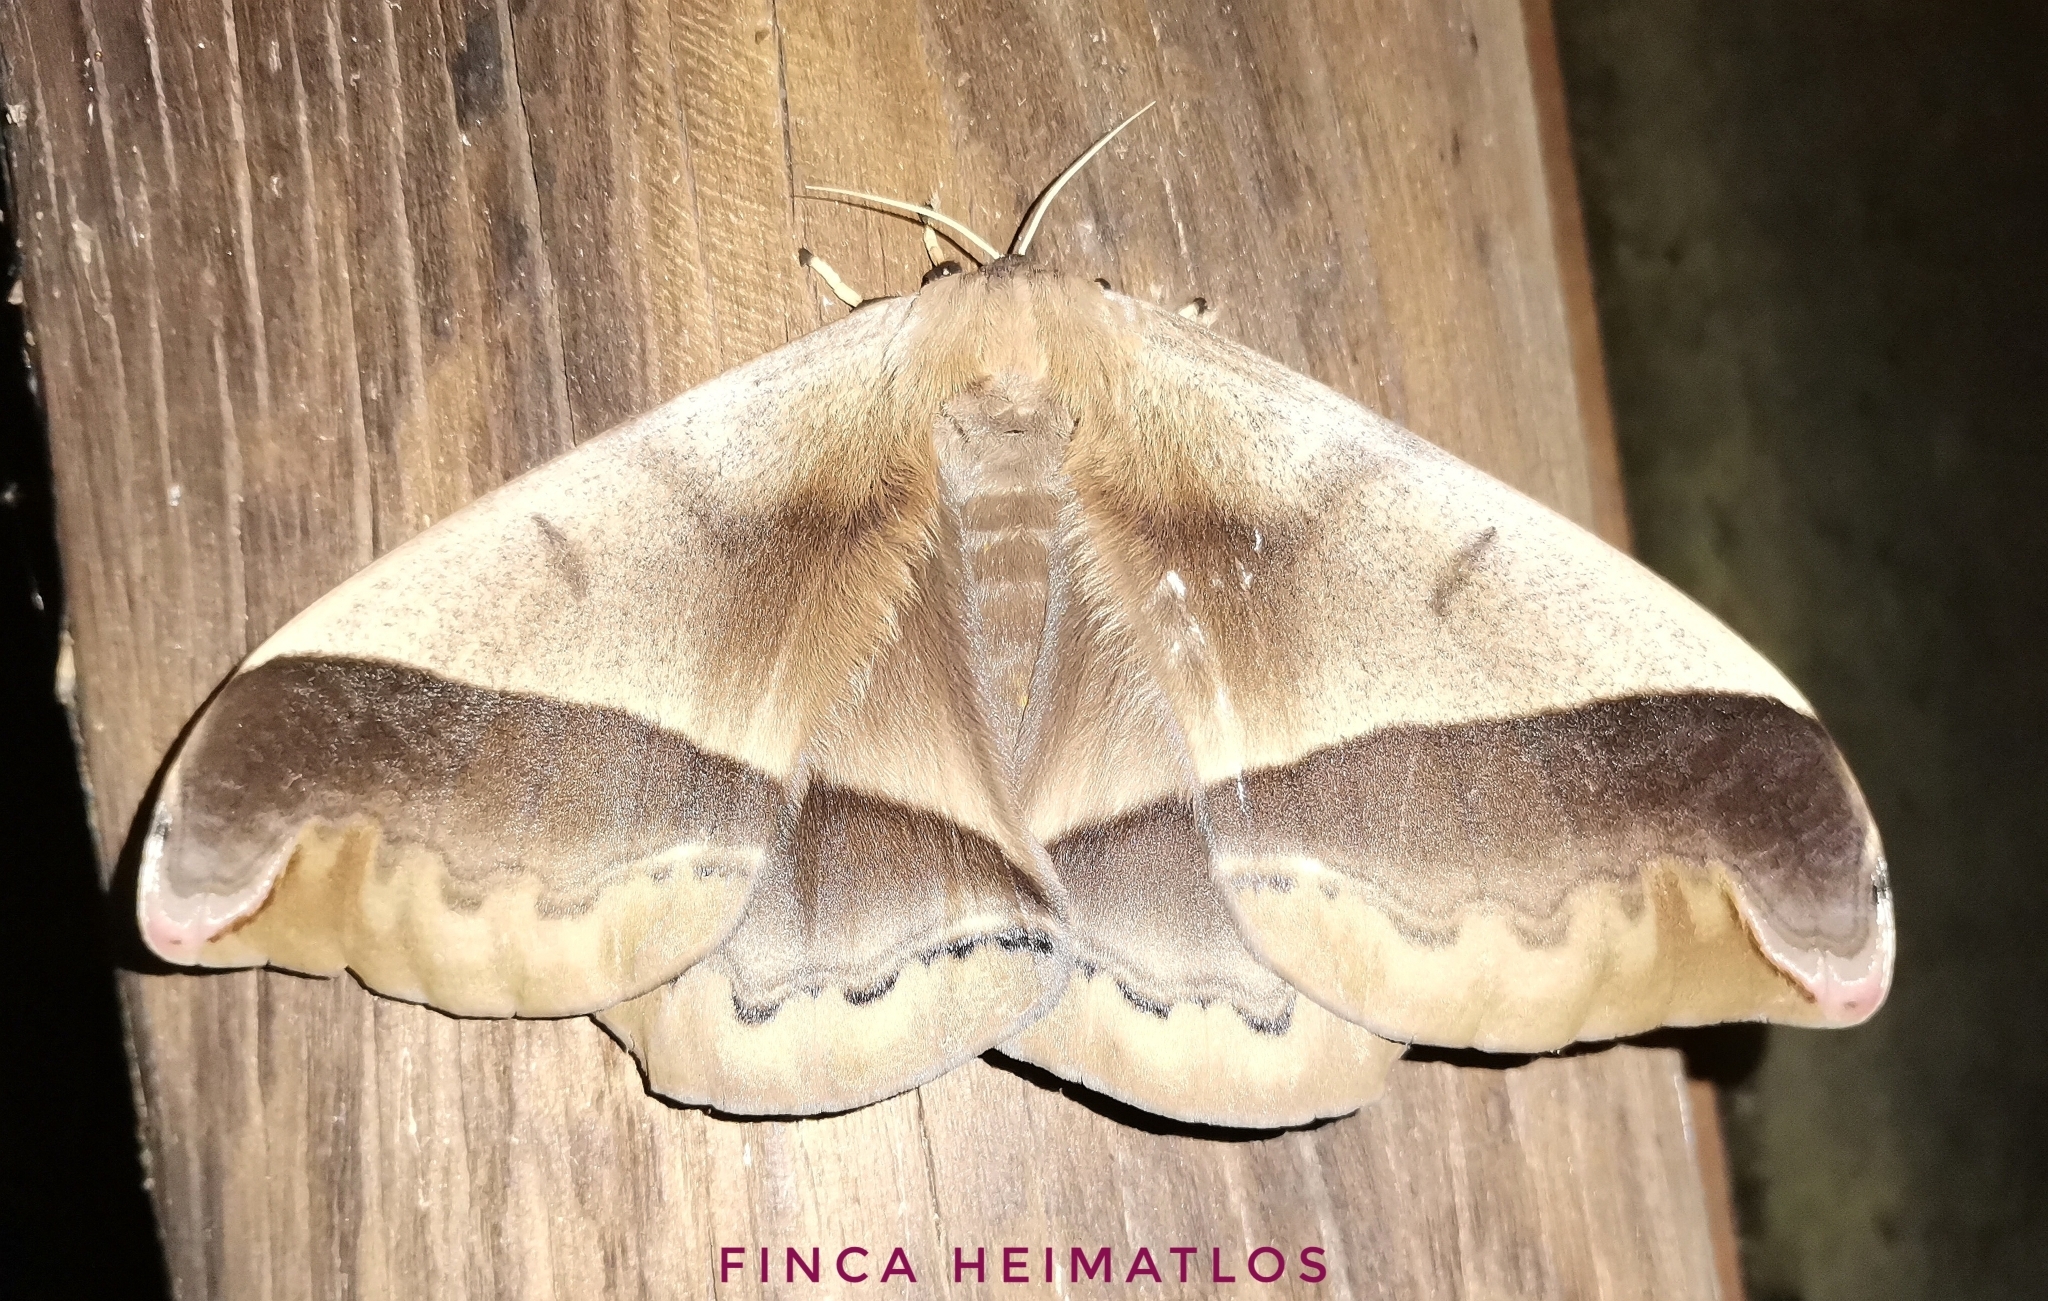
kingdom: Animalia
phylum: Arthropoda
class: Insecta
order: Lepidoptera
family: Saturniidae
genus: Arsenura
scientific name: Arsenura beebei
